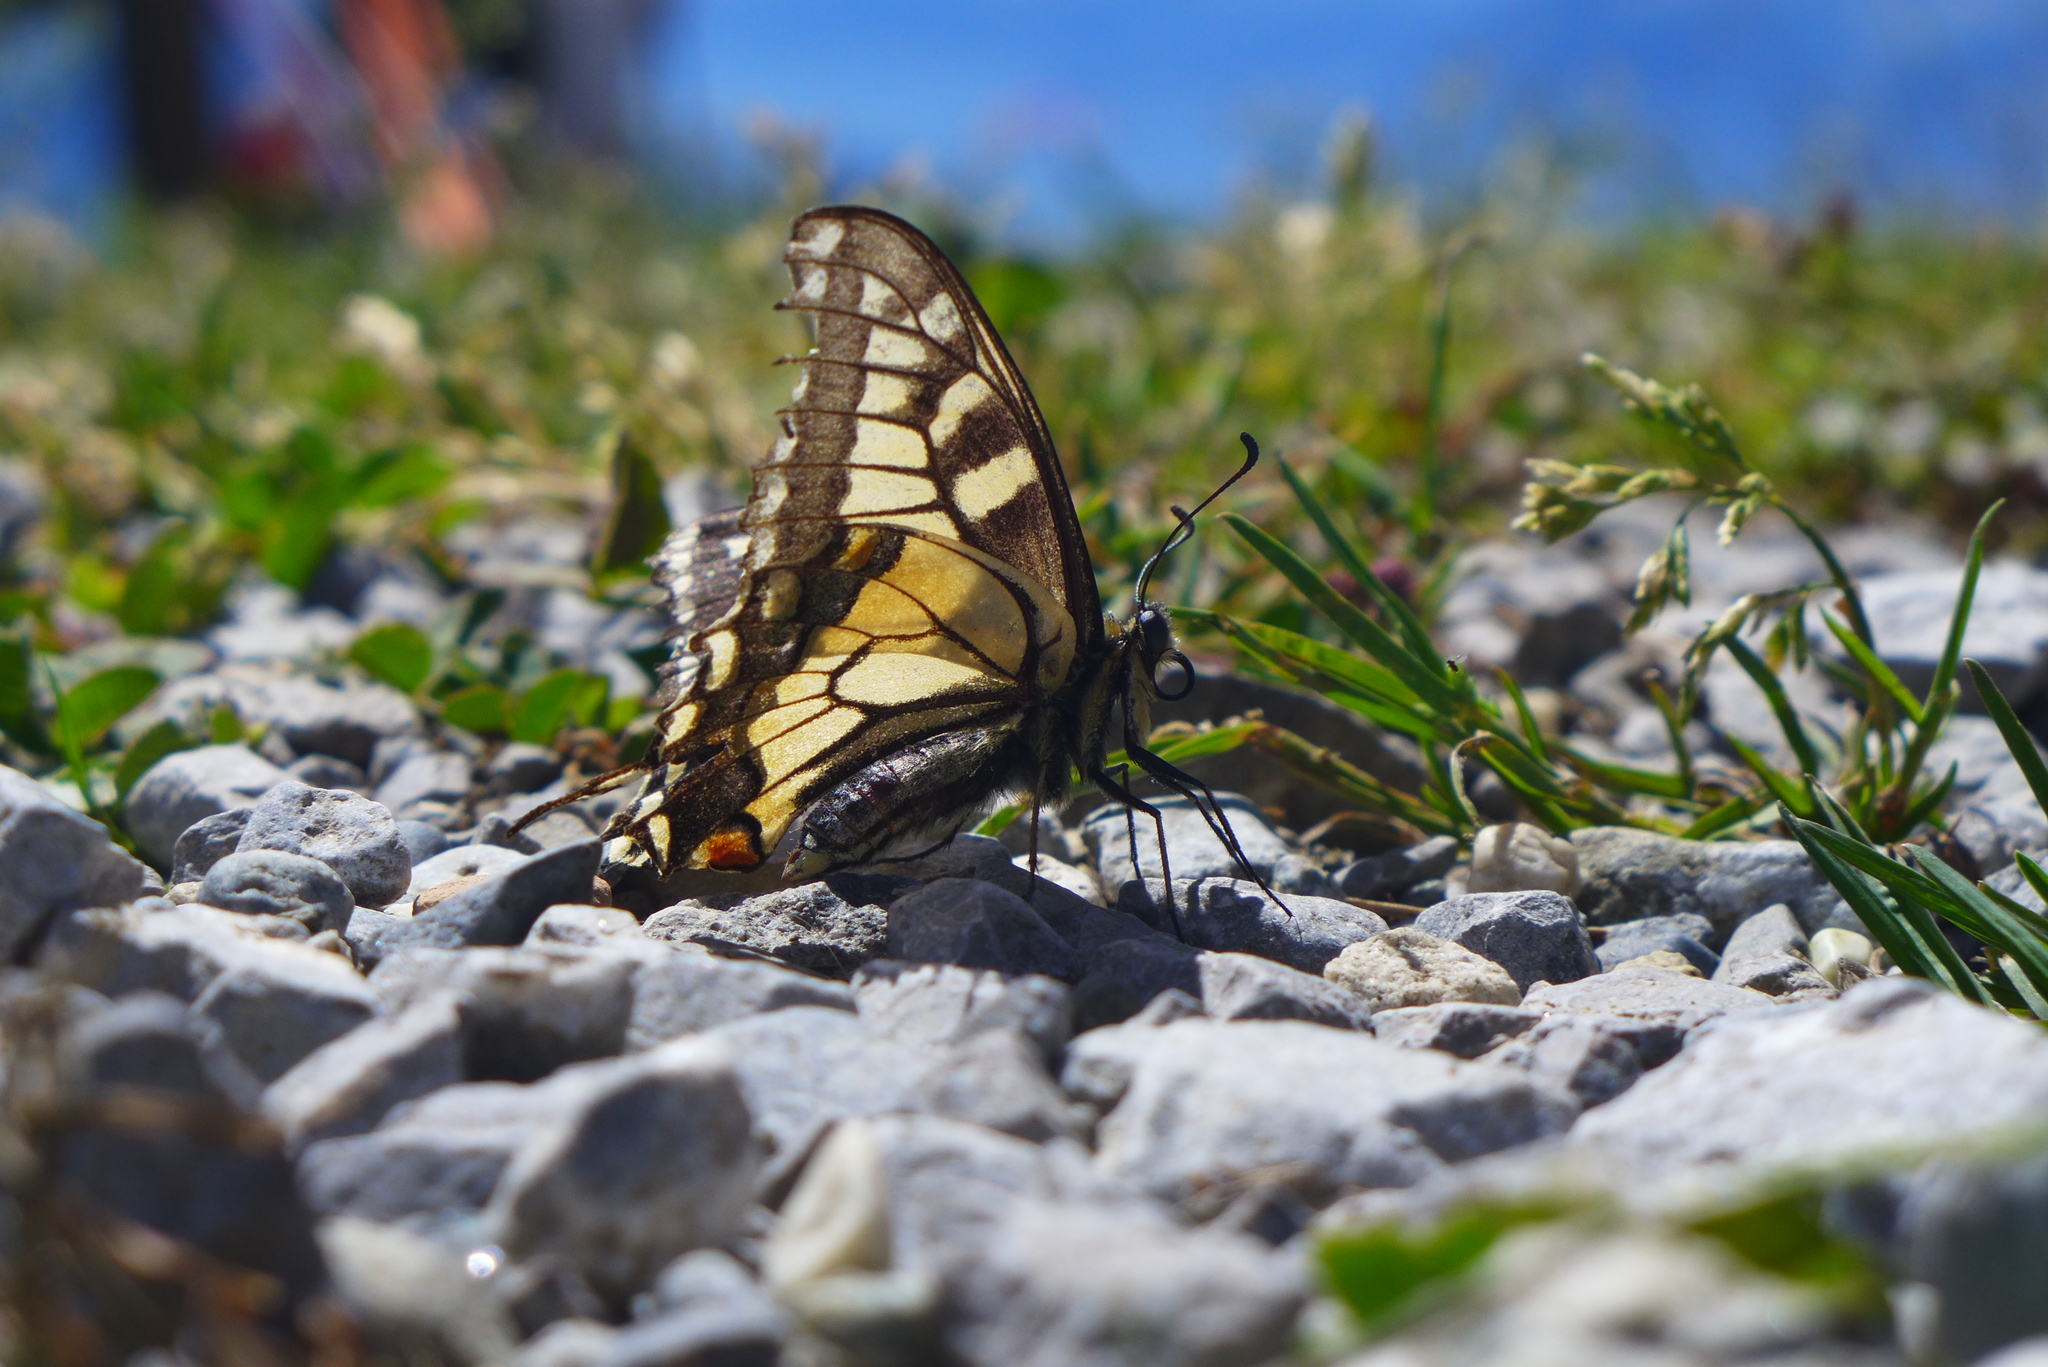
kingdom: Animalia
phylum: Arthropoda
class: Insecta
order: Lepidoptera
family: Papilionidae
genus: Papilio
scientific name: Papilio machaon
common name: Swallowtail
